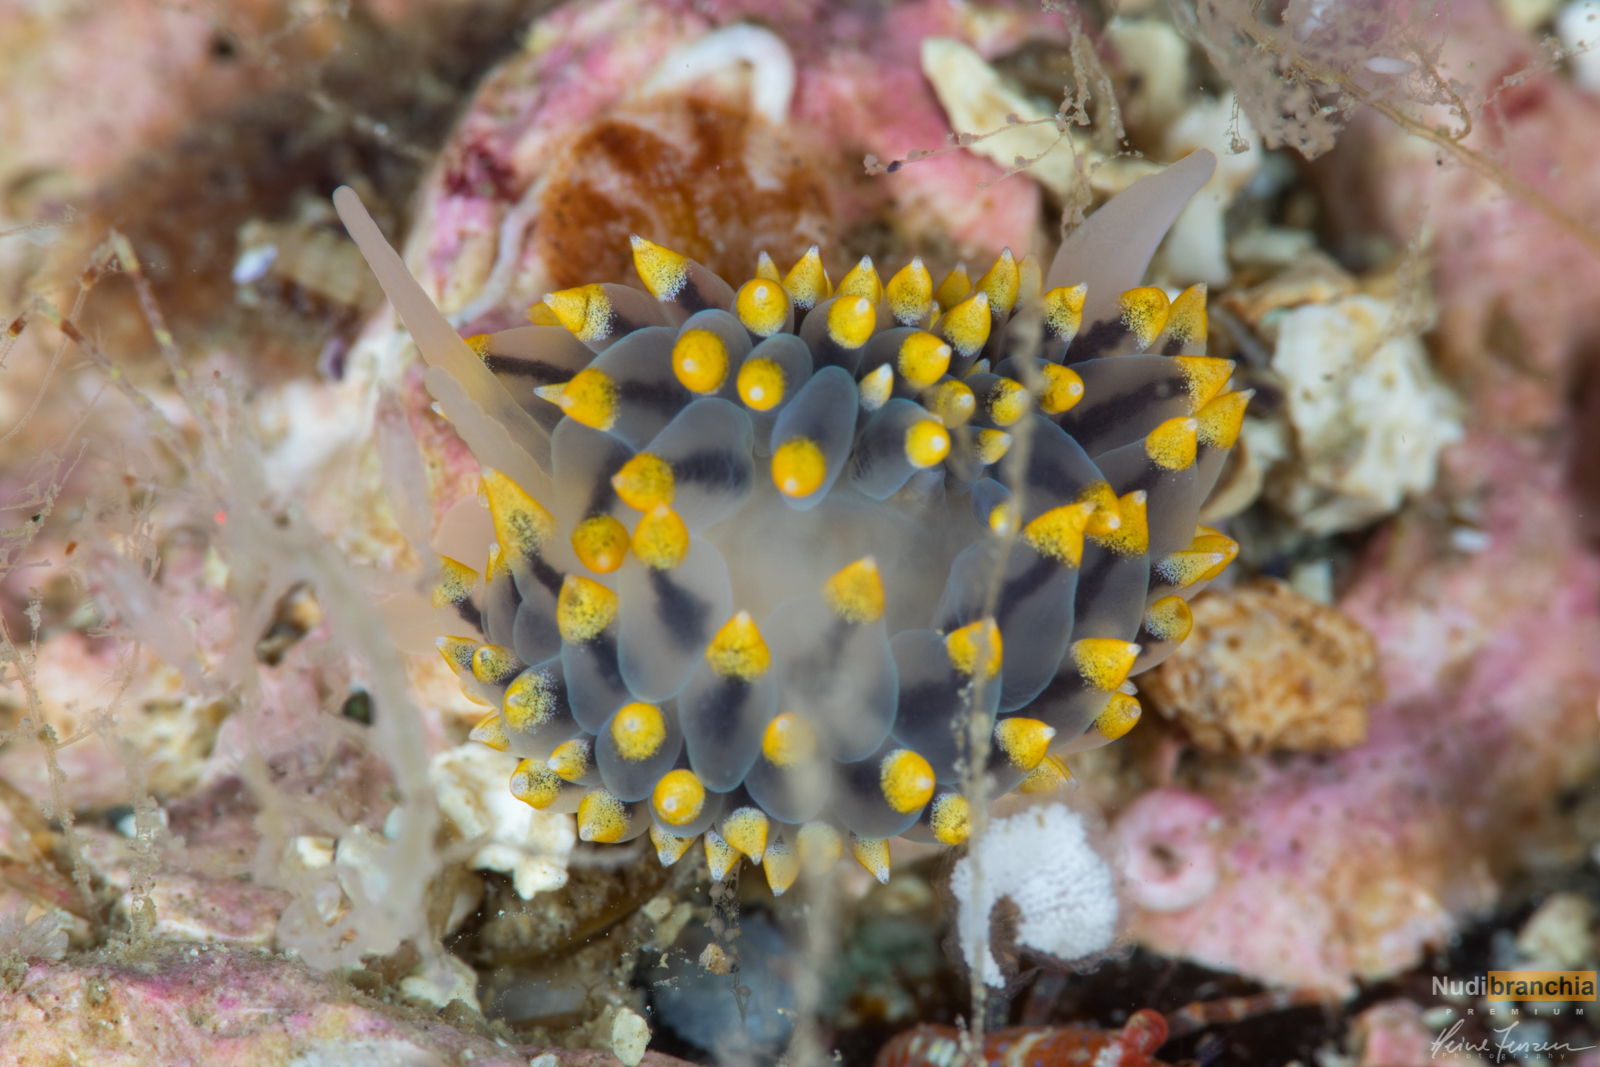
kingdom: Animalia
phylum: Mollusca
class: Gastropoda
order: Nudibranchia
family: Eubranchidae
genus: Eubranchus
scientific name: Eubranchus tricolor
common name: Painted balloon aeolis
